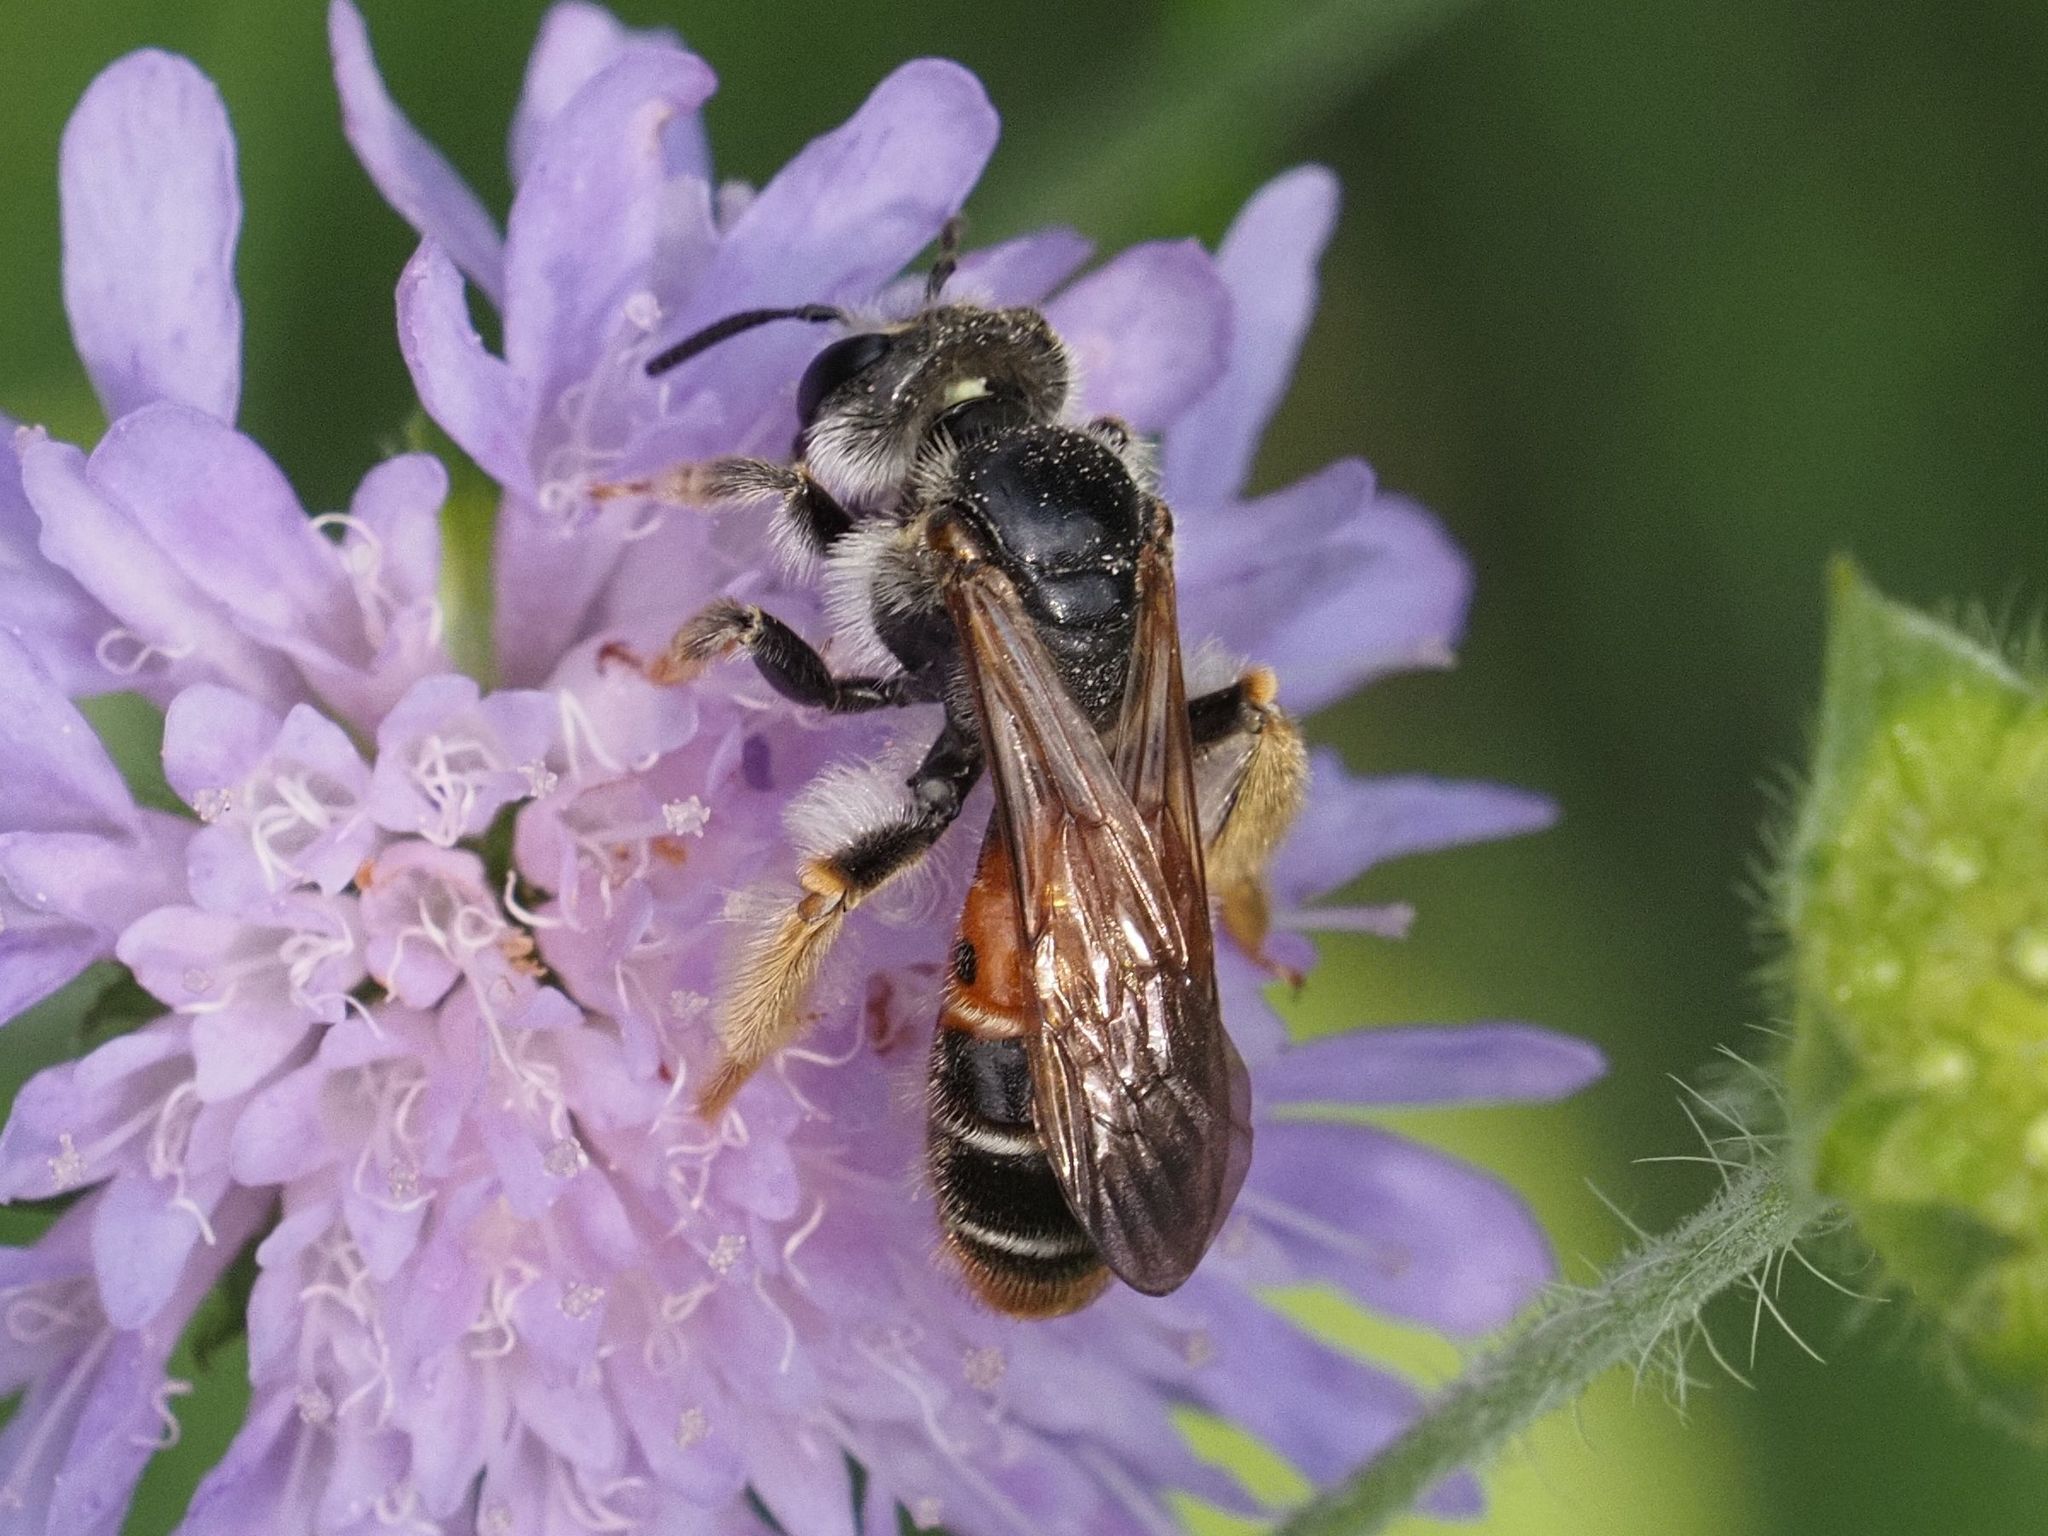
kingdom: Animalia
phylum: Arthropoda
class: Insecta
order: Hymenoptera
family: Andrenidae
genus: Andrena
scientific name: Andrena hattorfiana
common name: Large scabious mining bee
